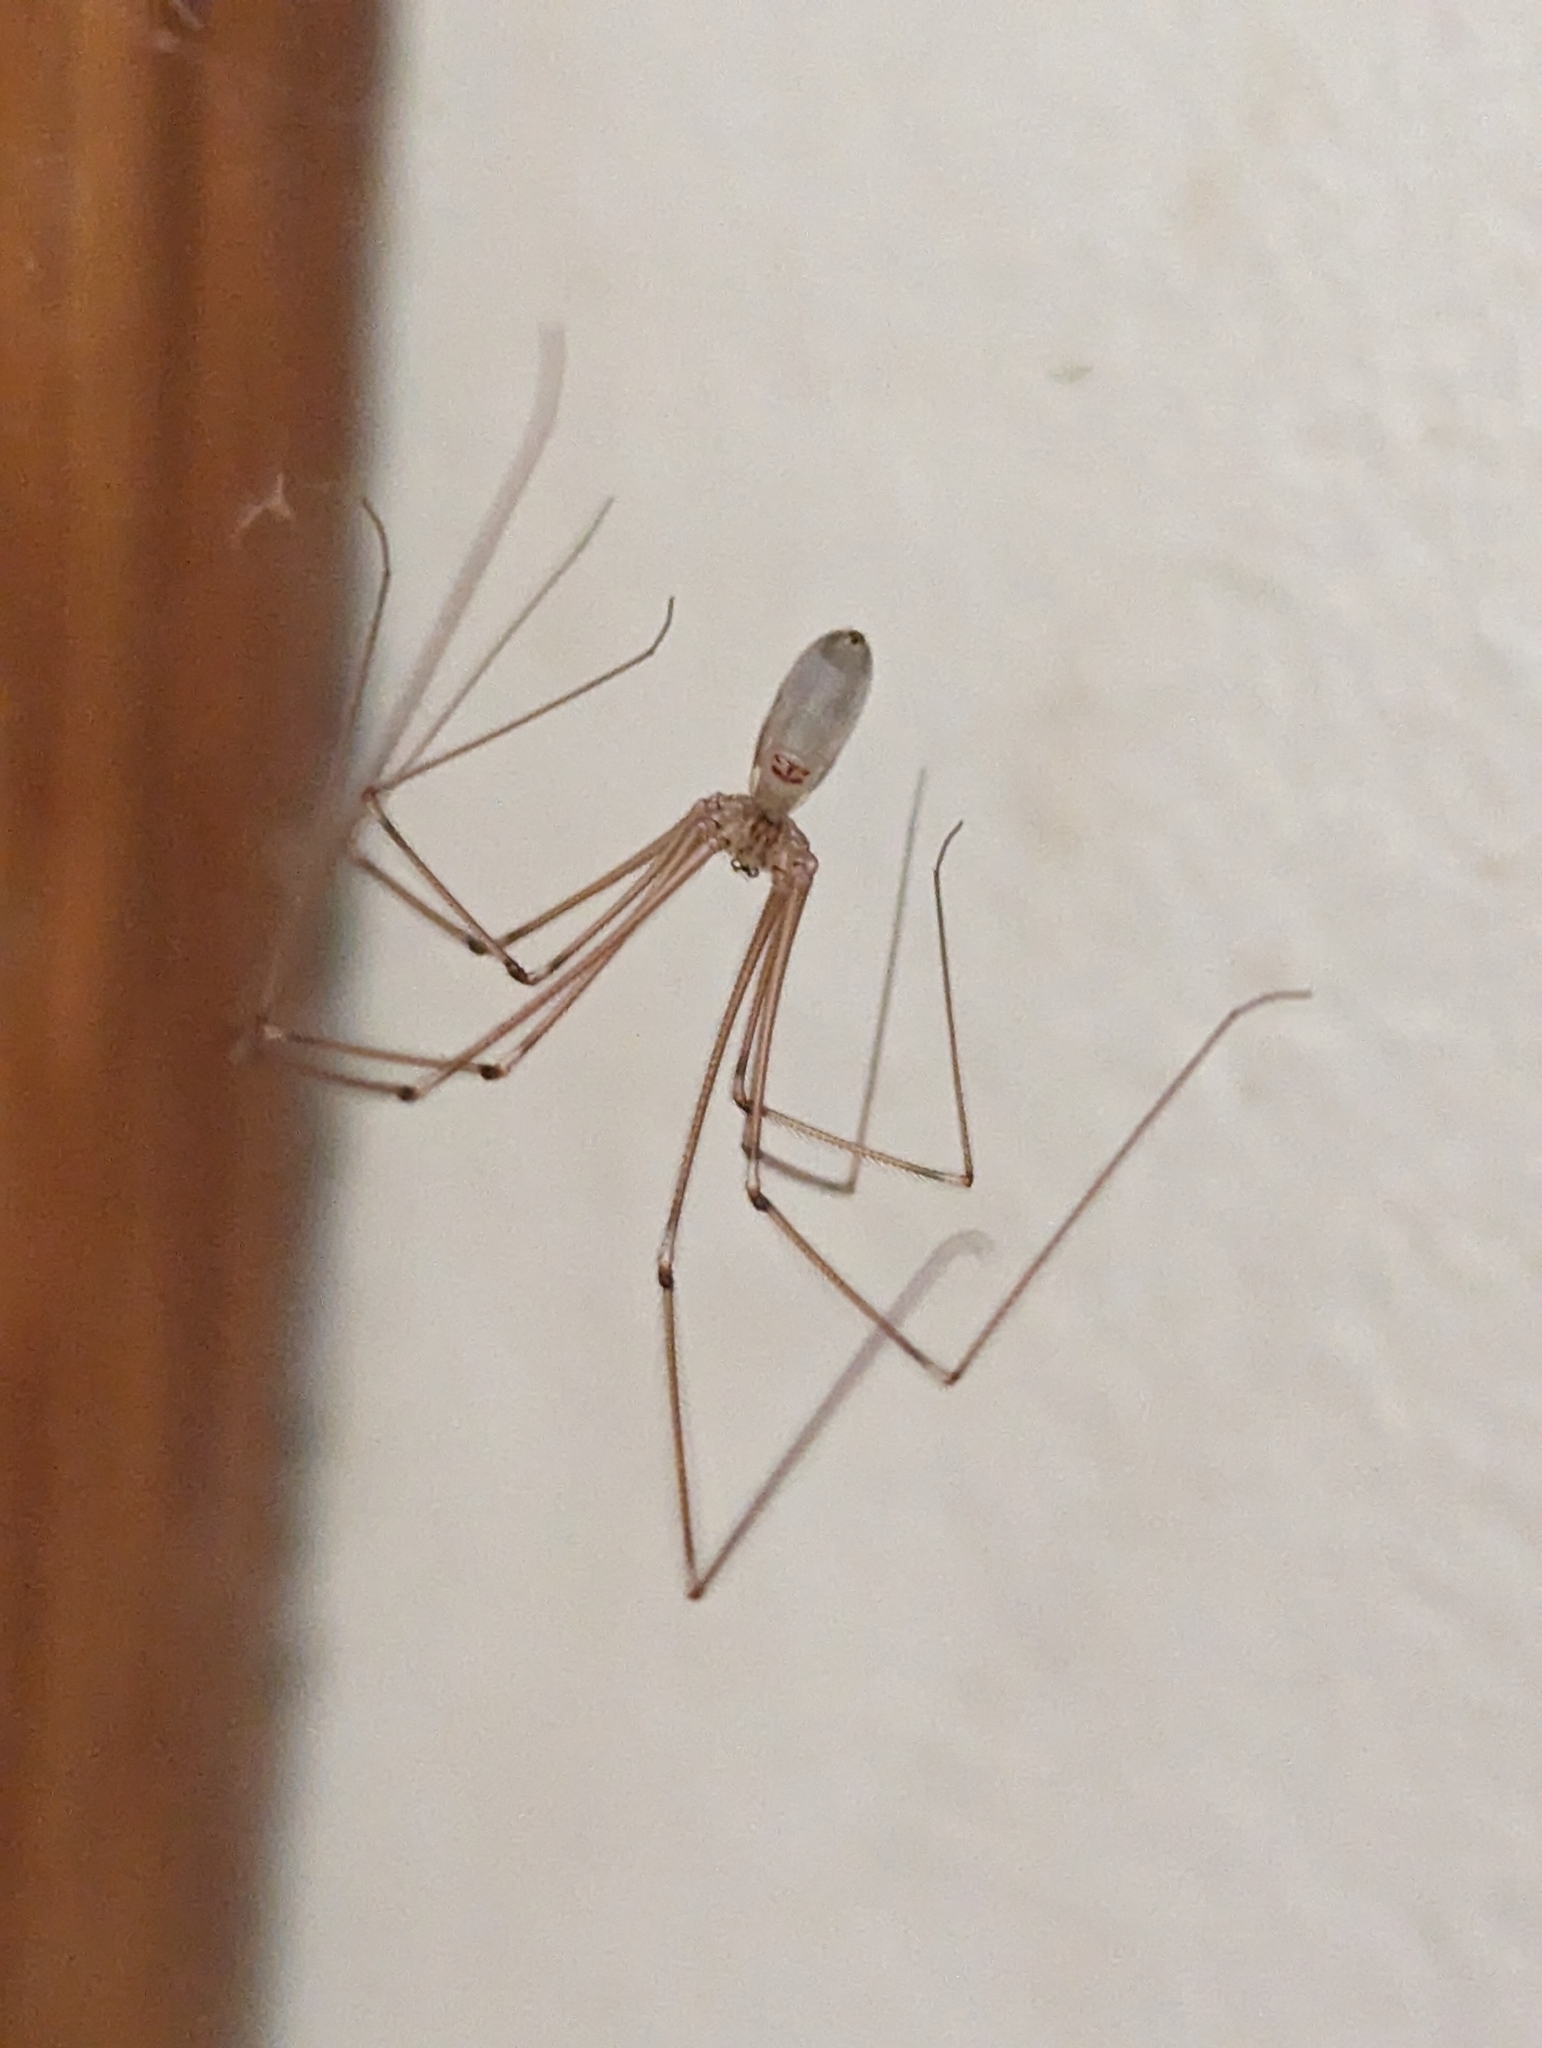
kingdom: Animalia
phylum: Arthropoda
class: Arachnida
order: Araneae
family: Pholcidae
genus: Pholcus
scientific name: Pholcus phalangioides
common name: Longbodied cellar spider
